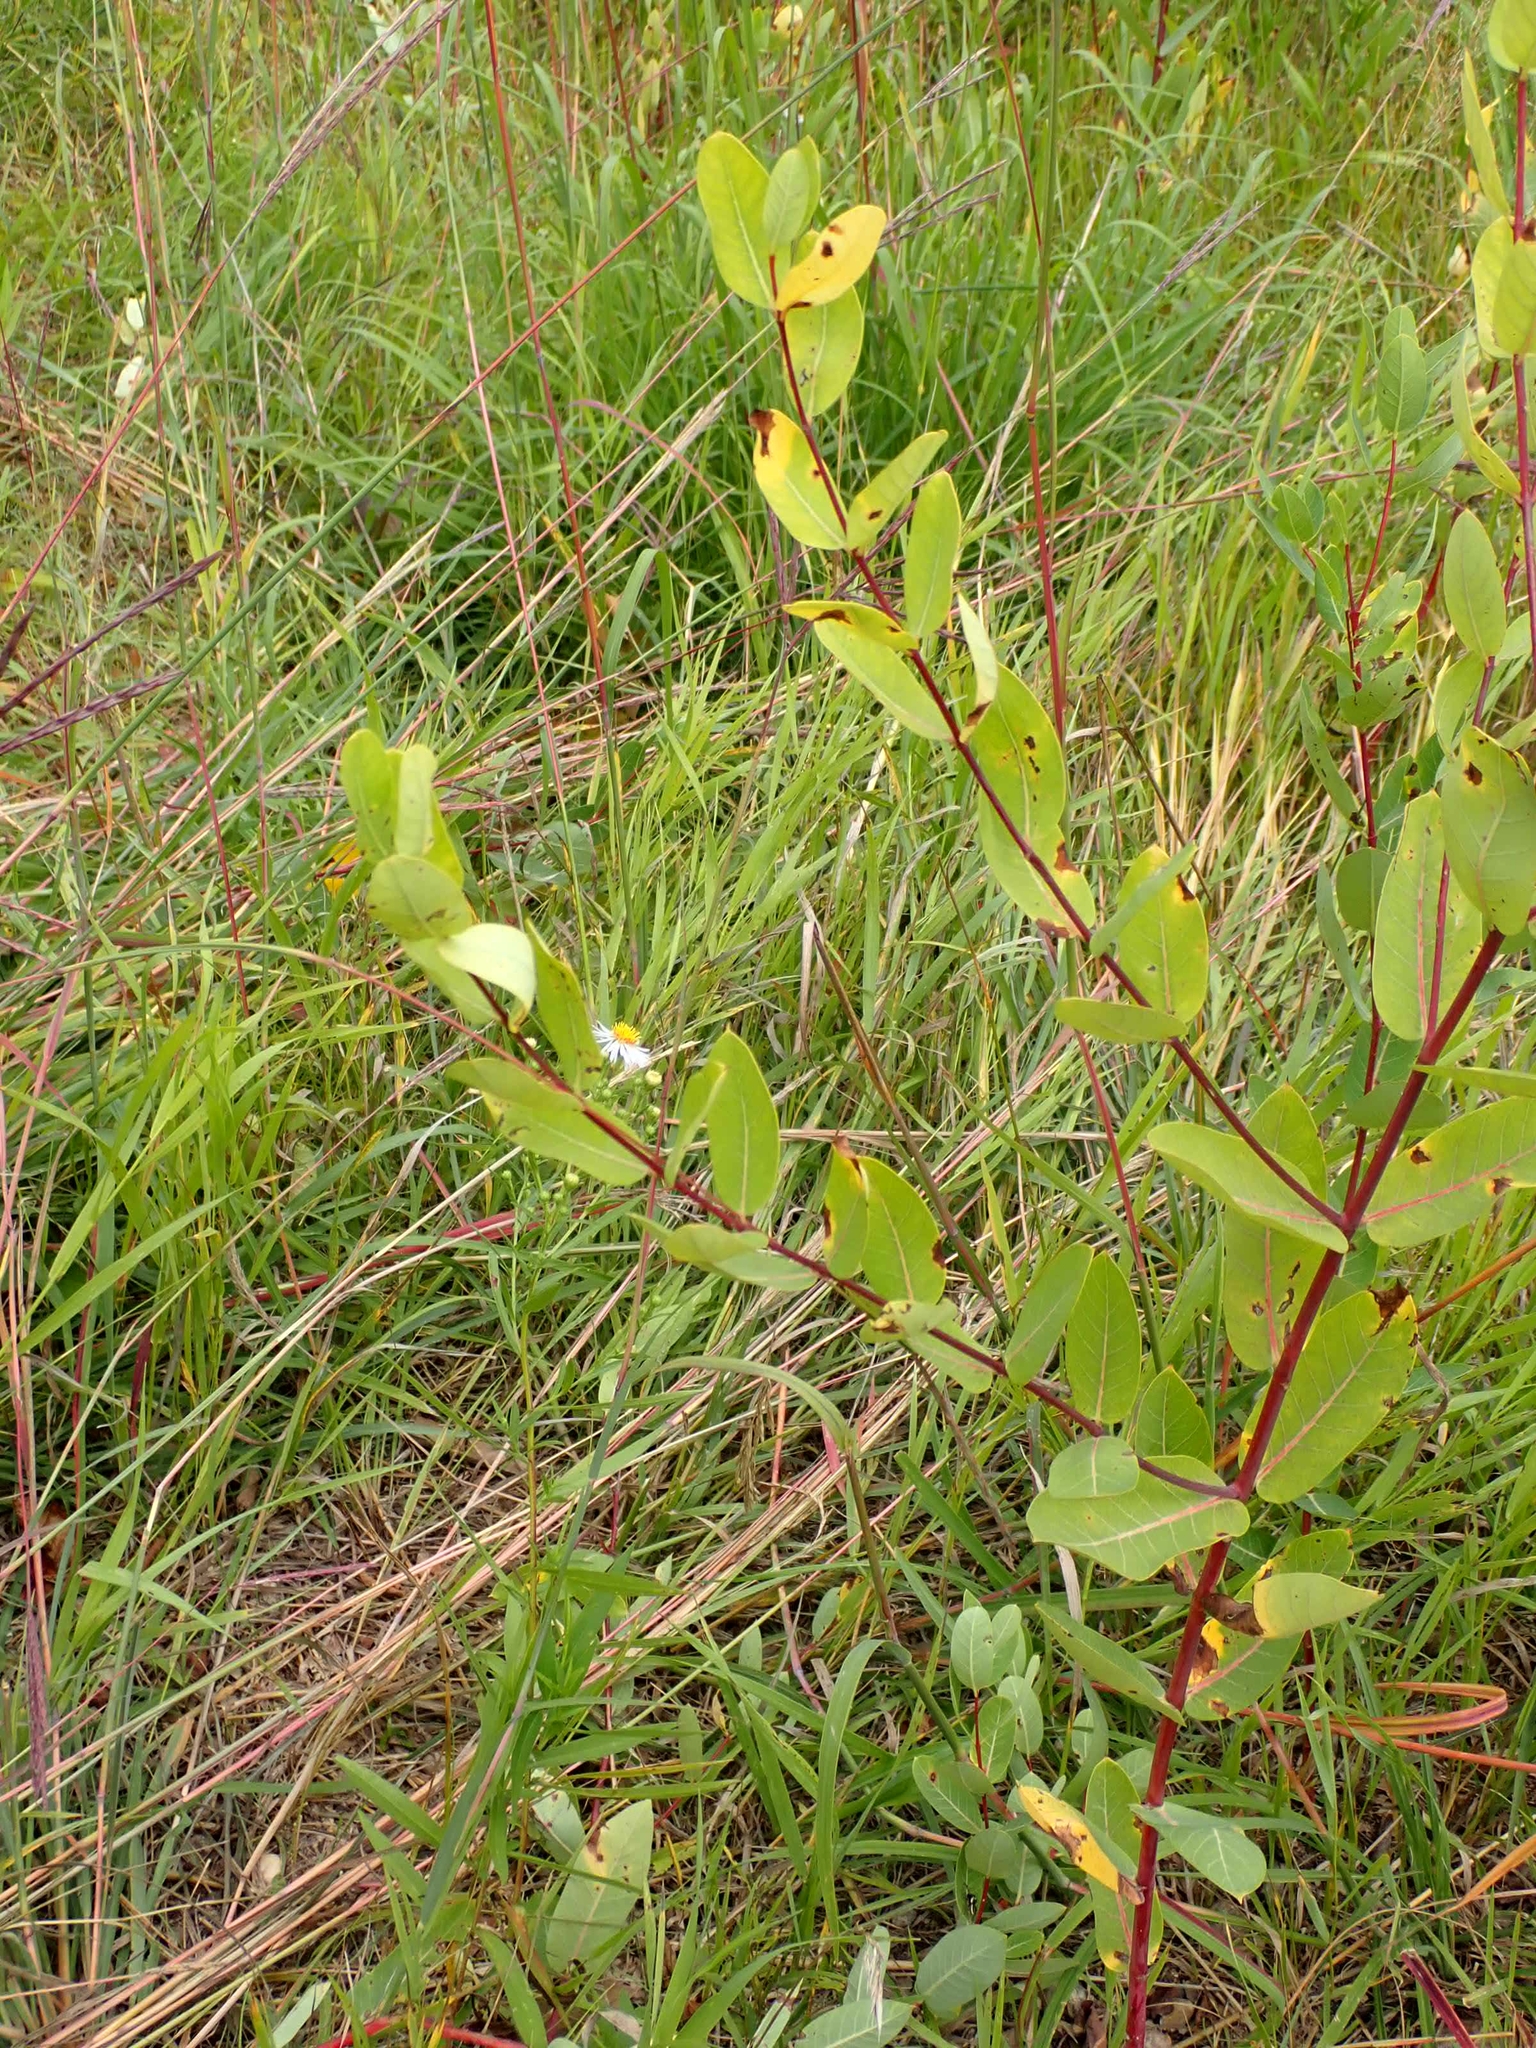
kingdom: Plantae
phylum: Tracheophyta
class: Magnoliopsida
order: Gentianales
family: Apocynaceae
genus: Apocynum
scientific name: Apocynum cannabinum
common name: Hemp dogbane
